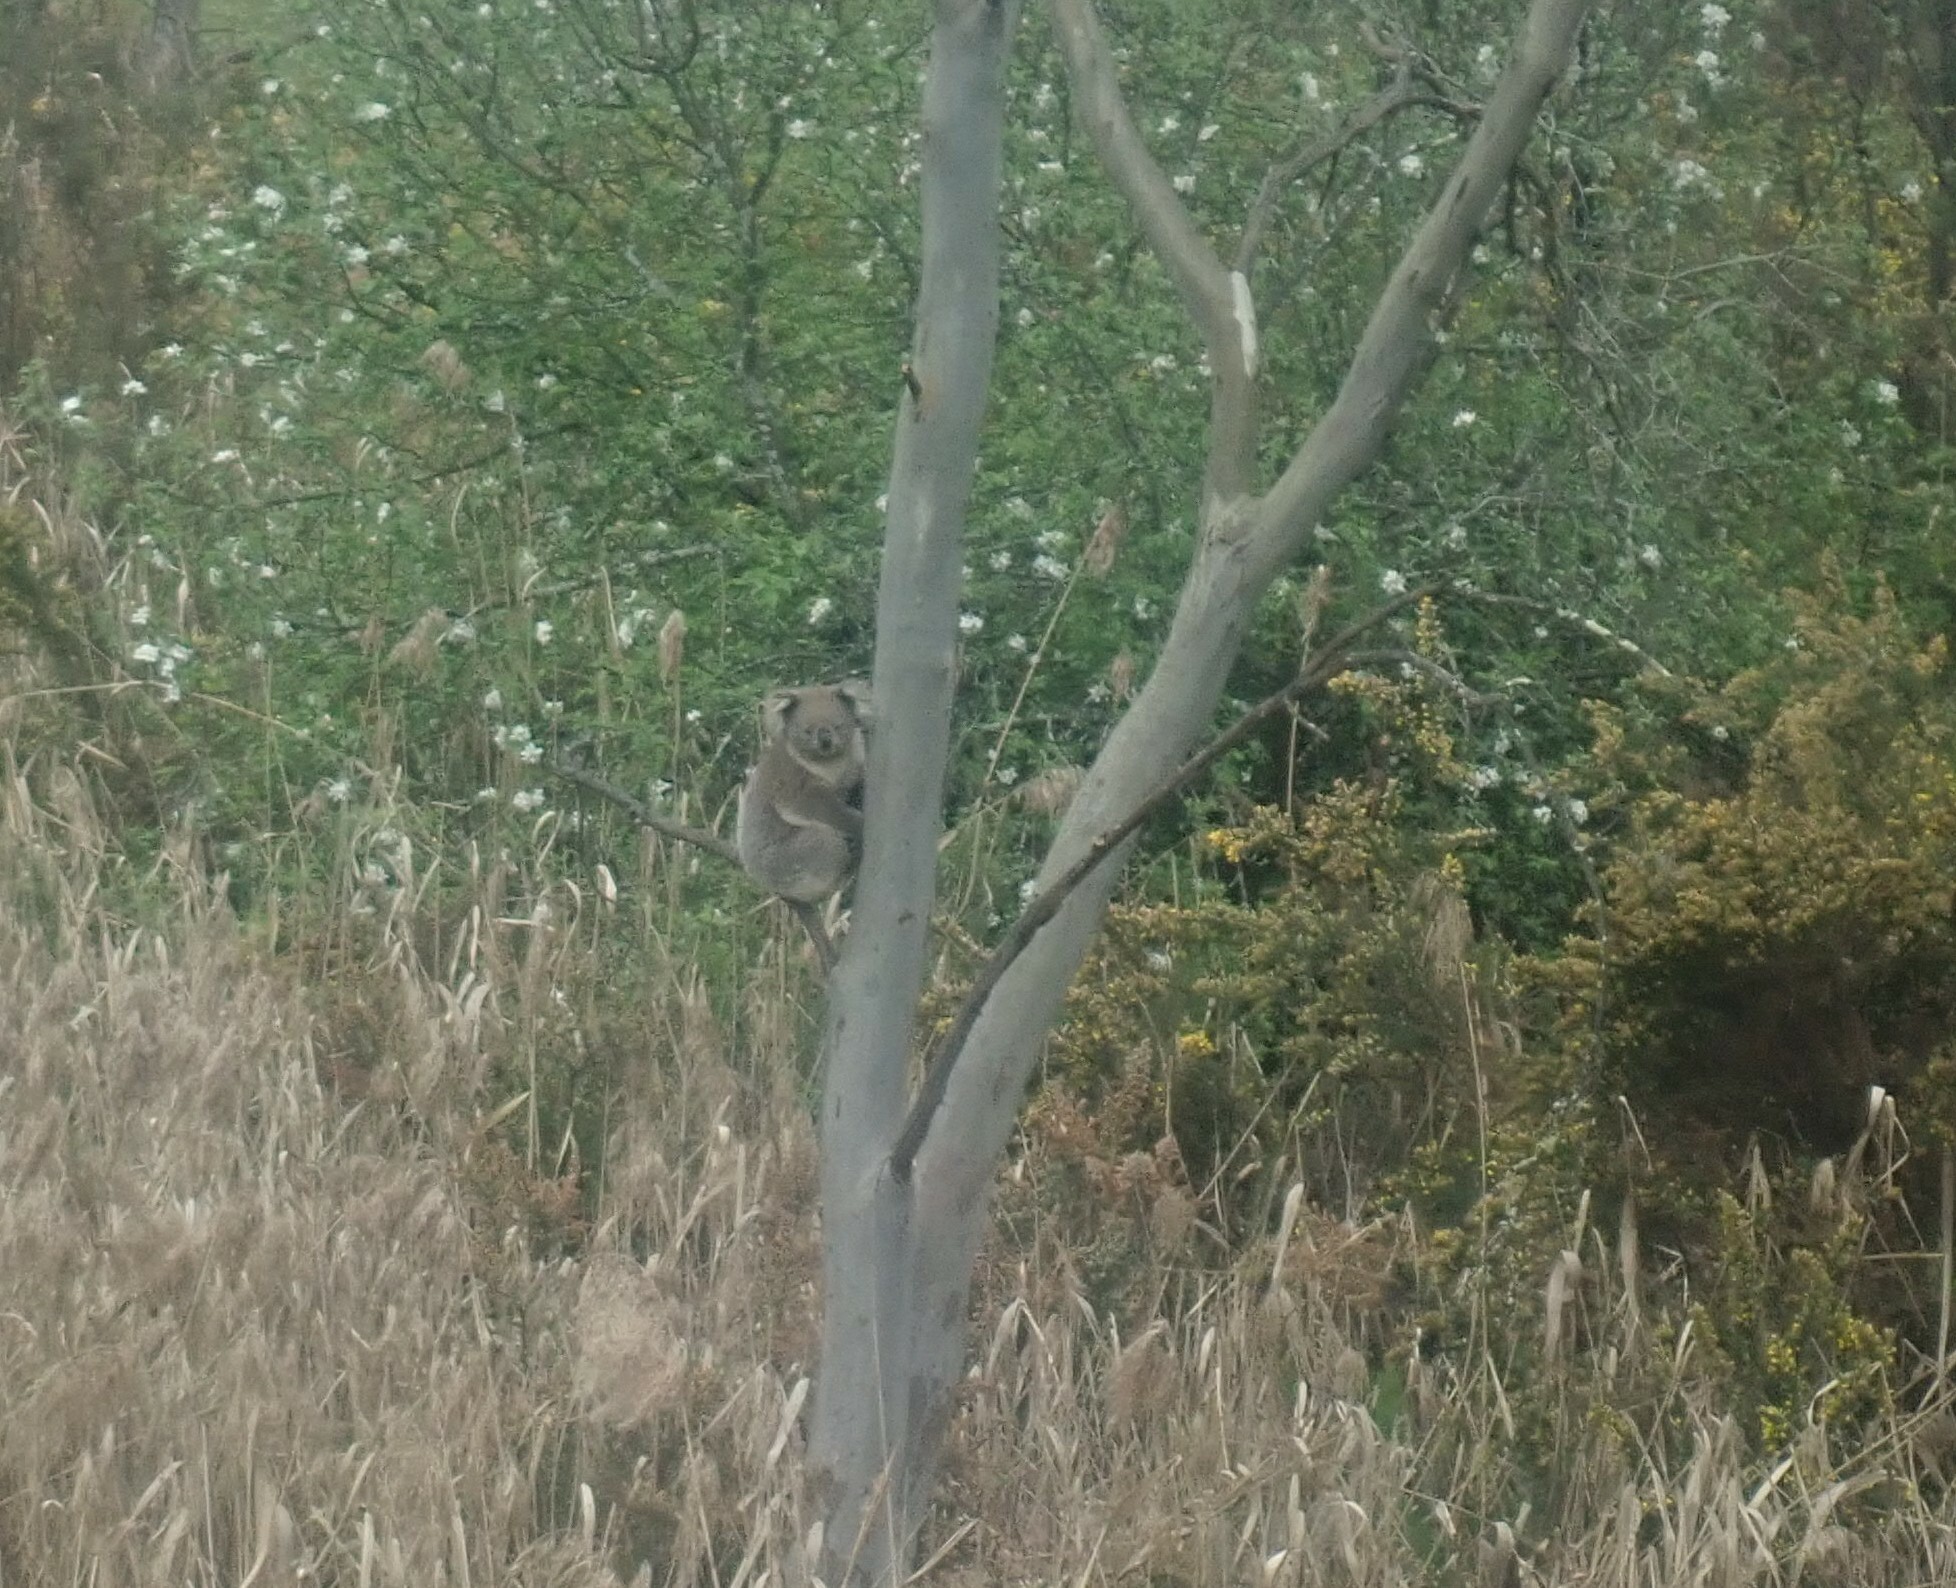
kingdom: Animalia
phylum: Chordata
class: Mammalia
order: Diprotodontia
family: Phascolarctidae
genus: Phascolarctos
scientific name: Phascolarctos cinereus
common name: Koala
